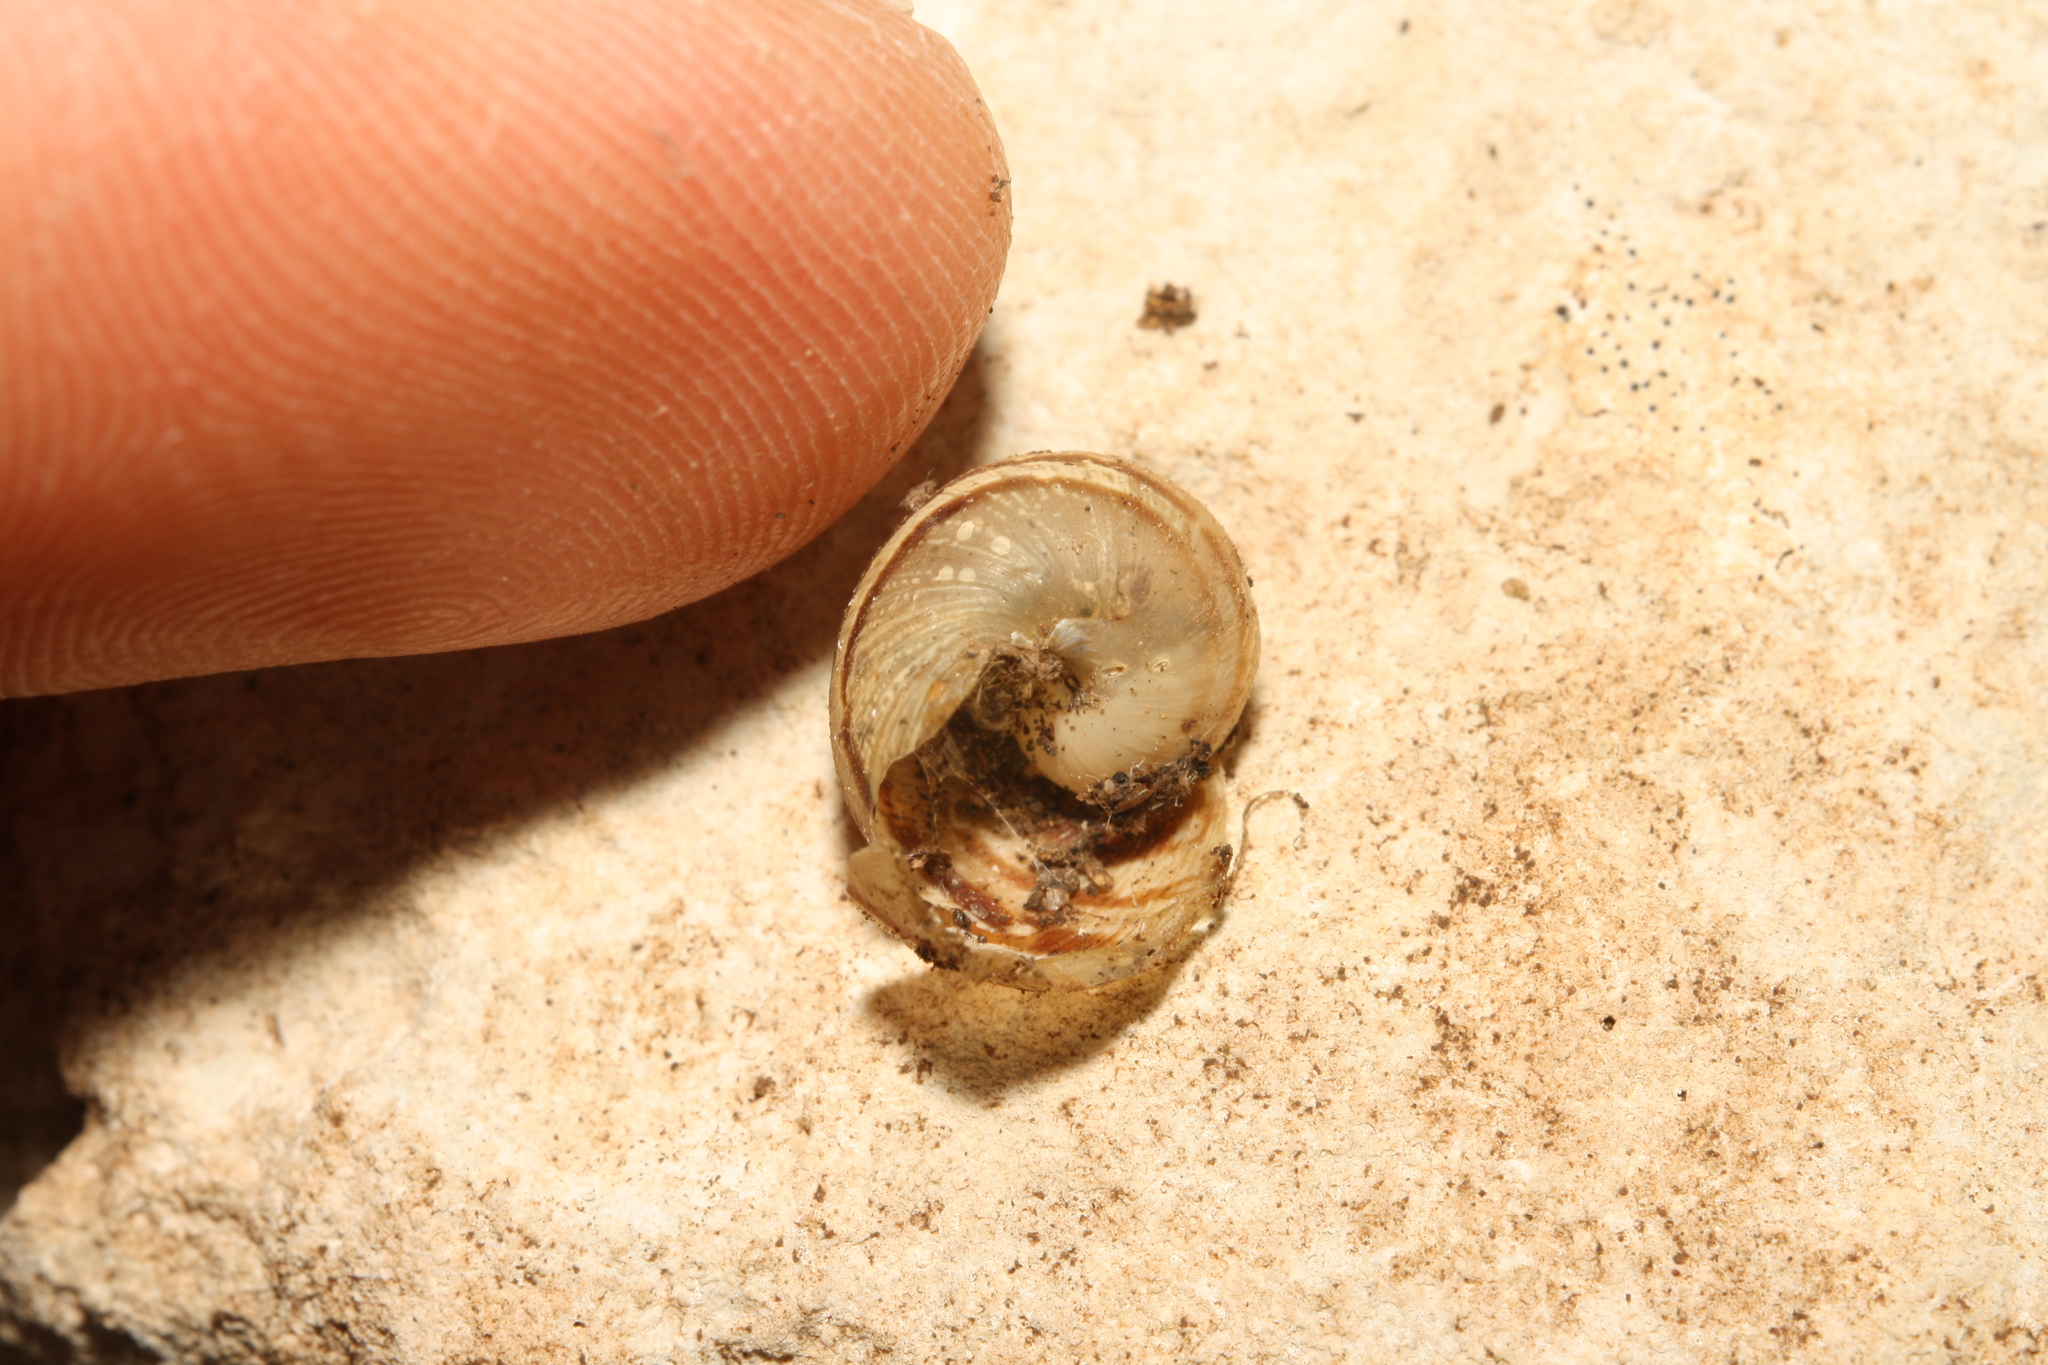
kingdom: Animalia
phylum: Mollusca
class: Gastropoda
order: Stylommatophora
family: Helicidae
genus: Cornu
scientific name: Cornu aspersum
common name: Brown garden snail
